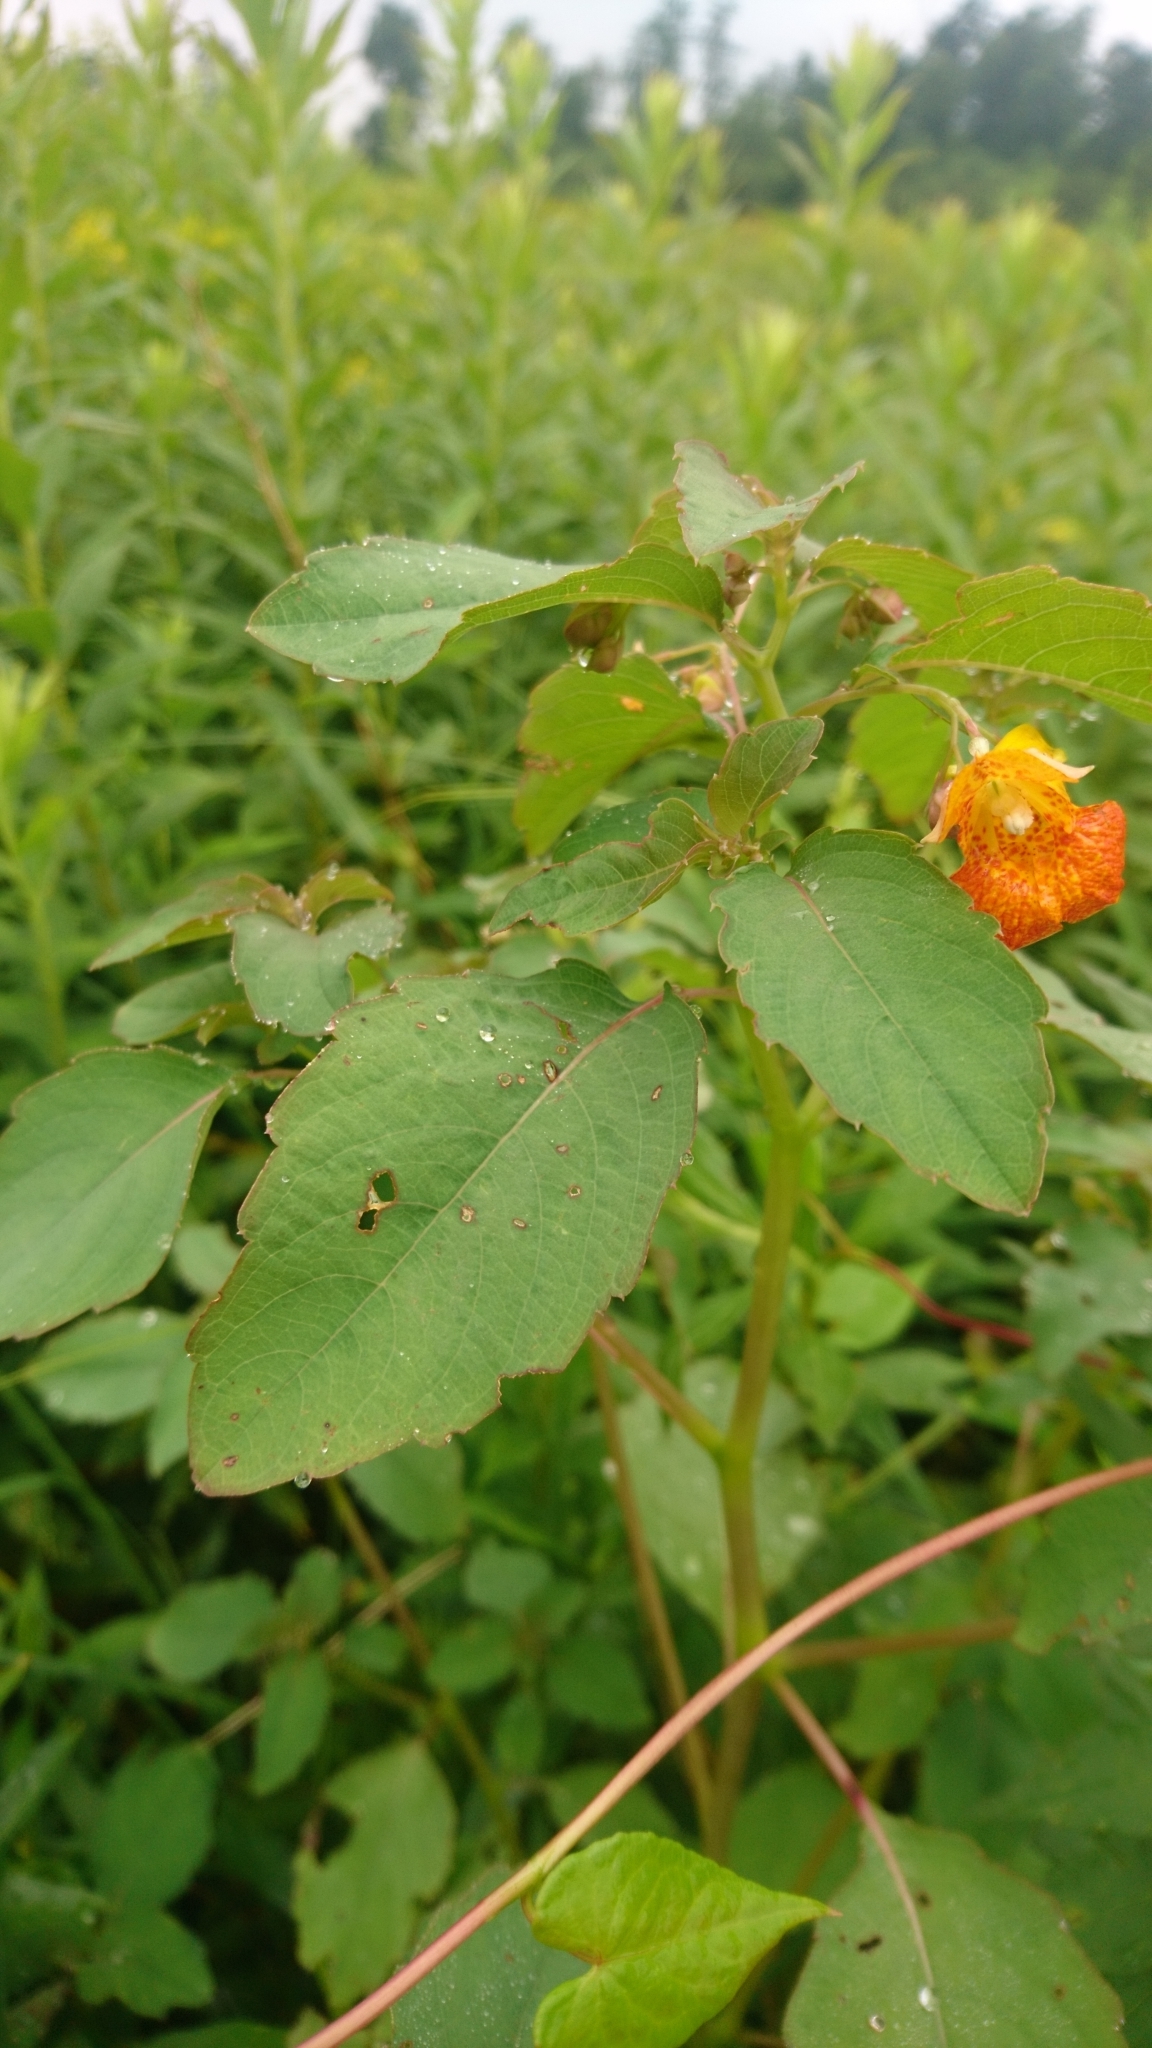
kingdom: Plantae
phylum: Tracheophyta
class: Magnoliopsida
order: Ericales
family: Balsaminaceae
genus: Impatiens
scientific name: Impatiens capensis
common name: Orange balsam
